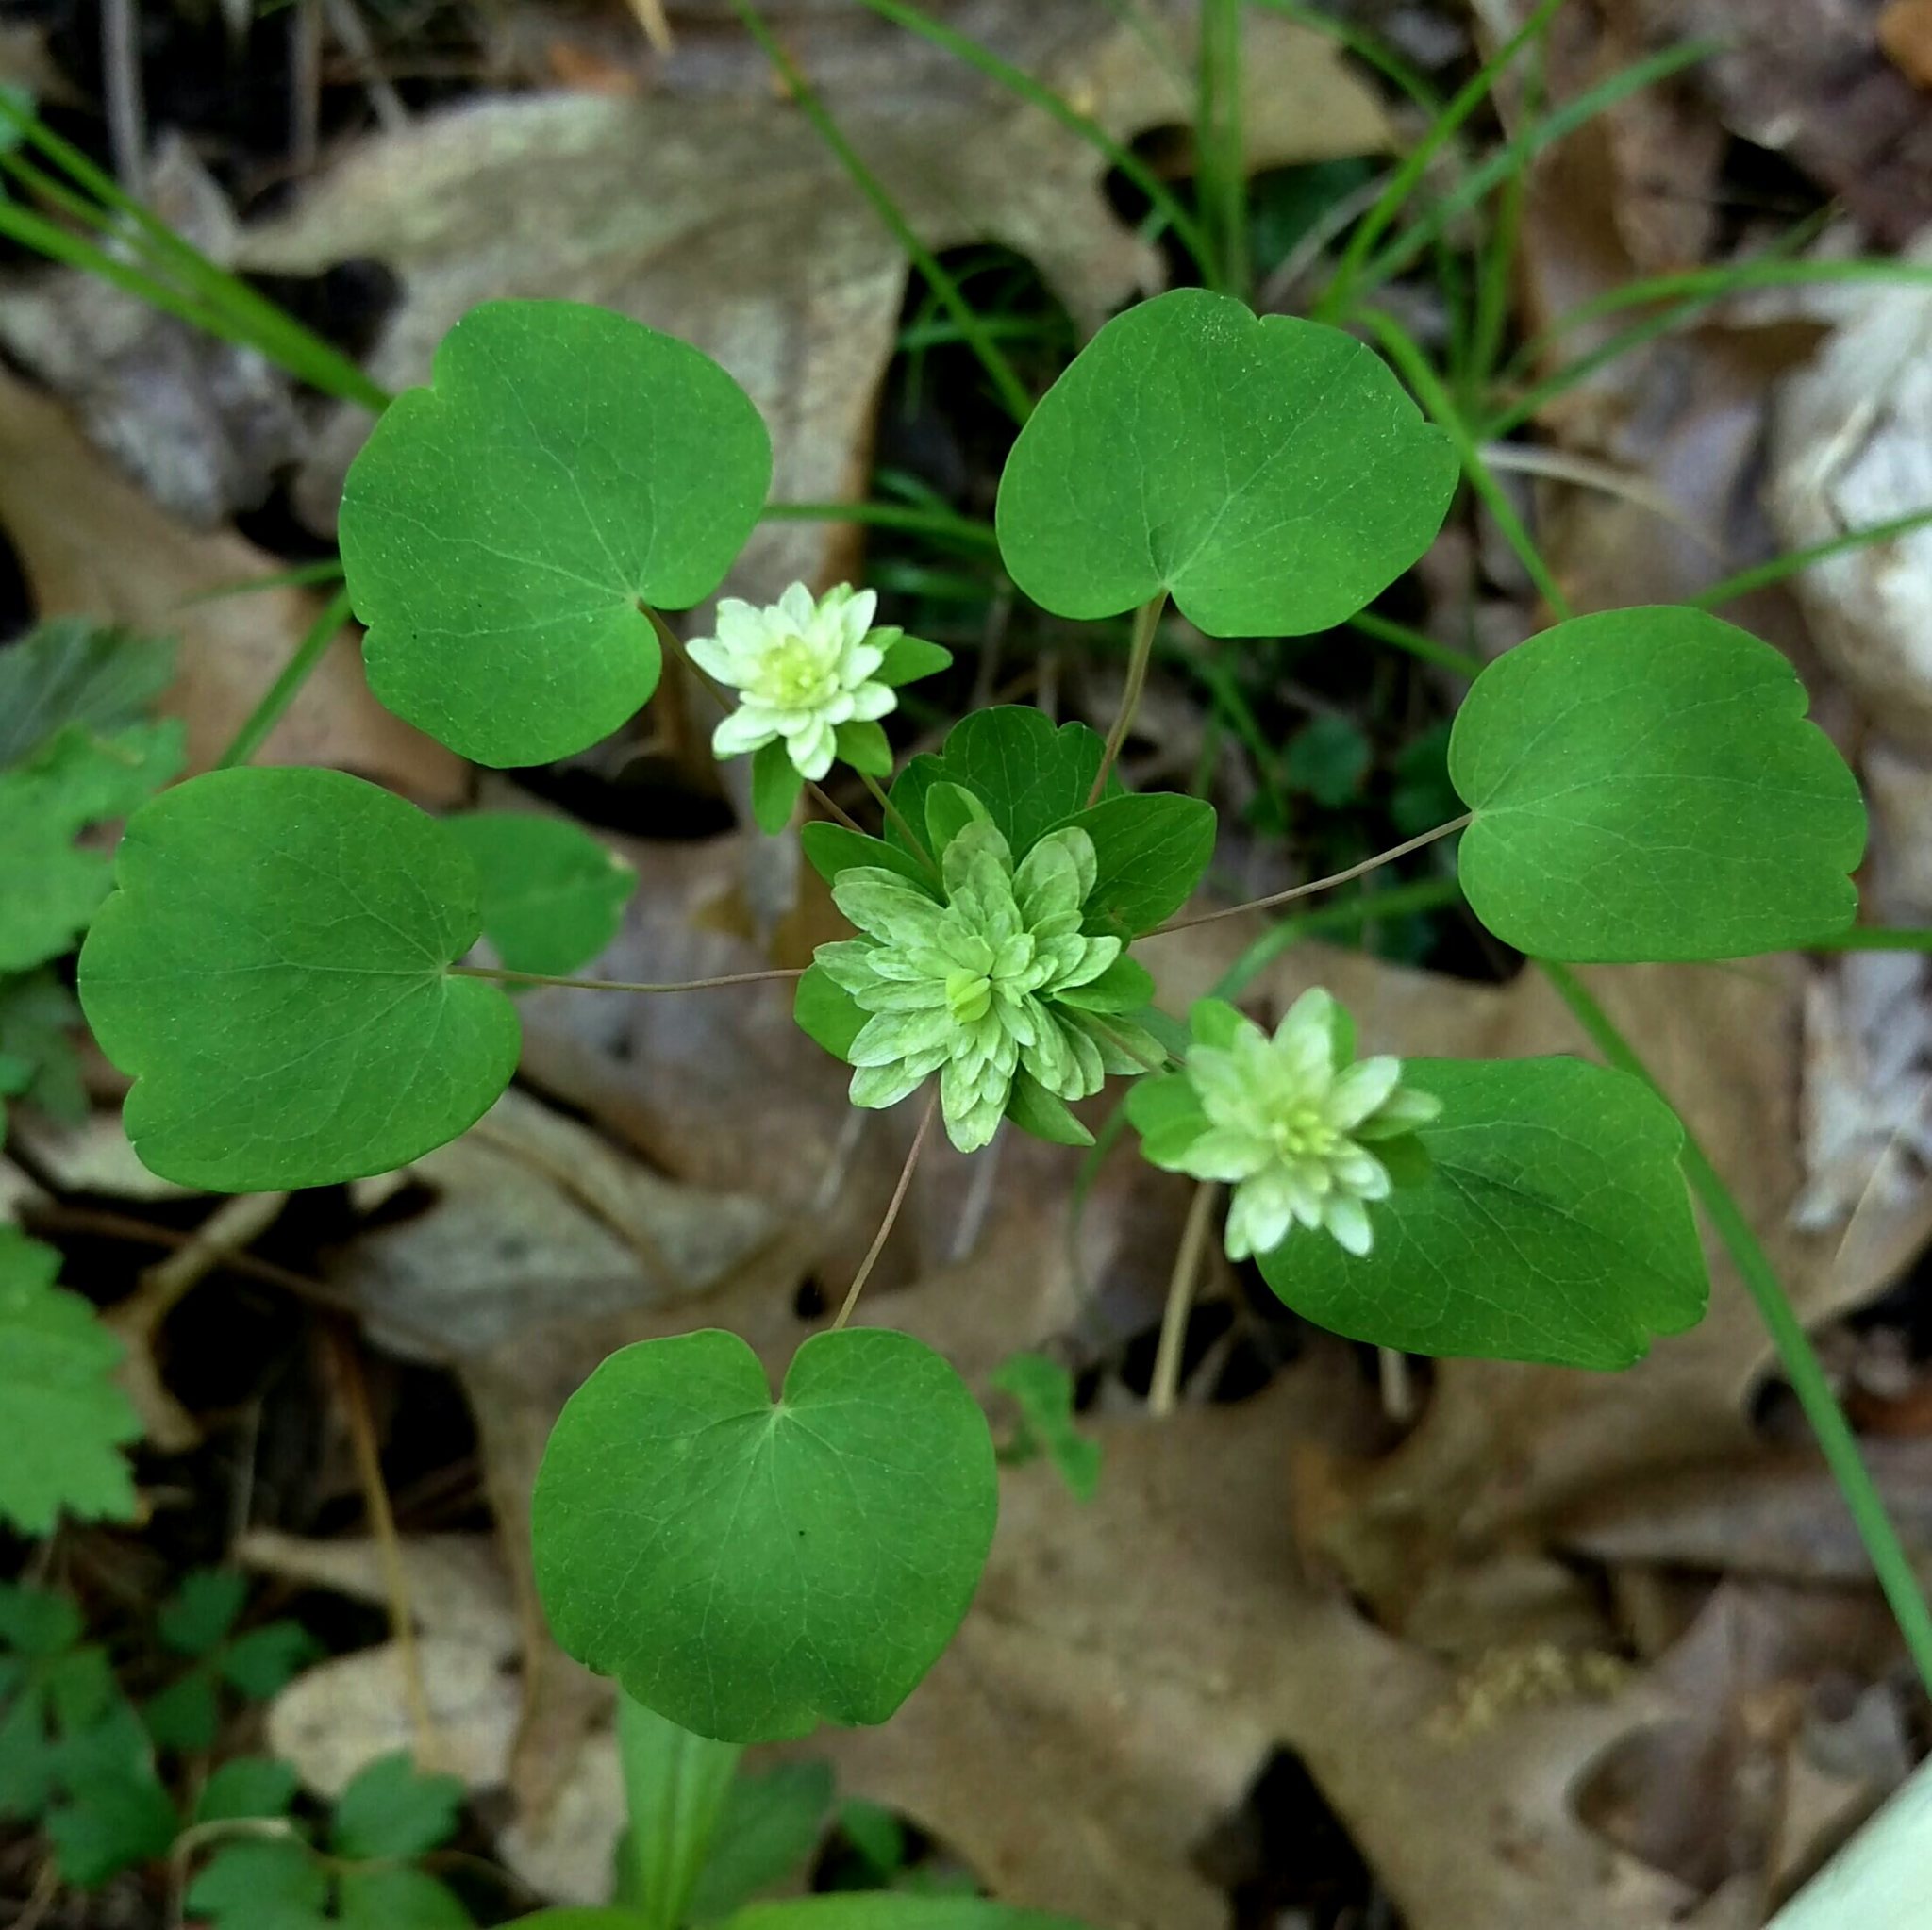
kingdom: Plantae
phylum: Tracheophyta
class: Magnoliopsida
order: Ranunculales
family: Ranunculaceae
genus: Thalictrum
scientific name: Thalictrum thalictroides
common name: Rue-anemone
